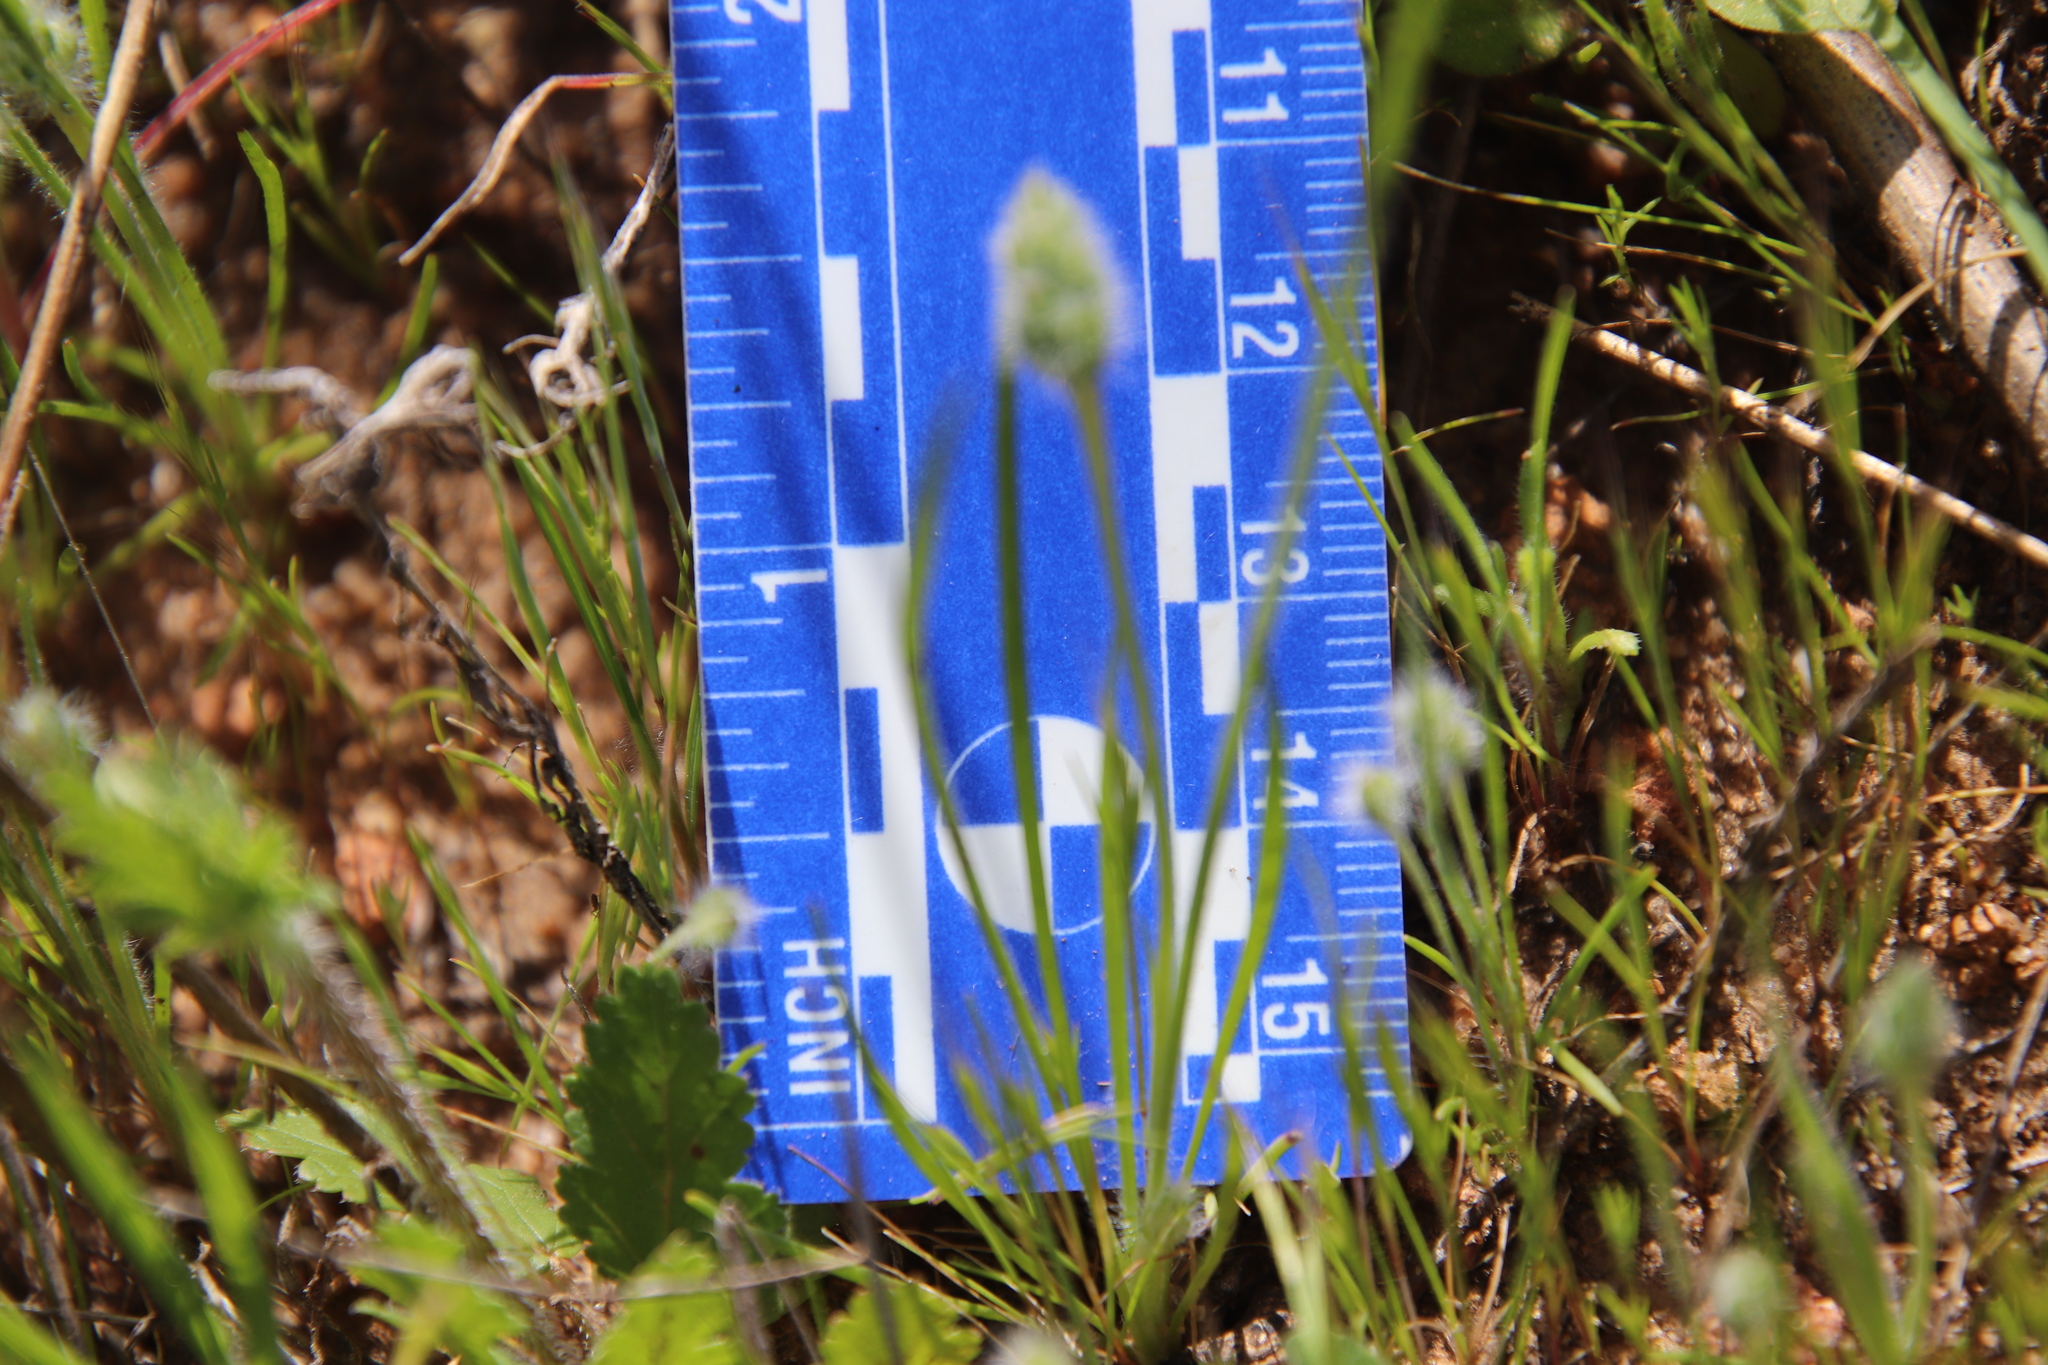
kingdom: Plantae
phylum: Tracheophyta
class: Magnoliopsida
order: Lamiales
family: Plantaginaceae
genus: Plantago
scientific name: Plantago erecta
